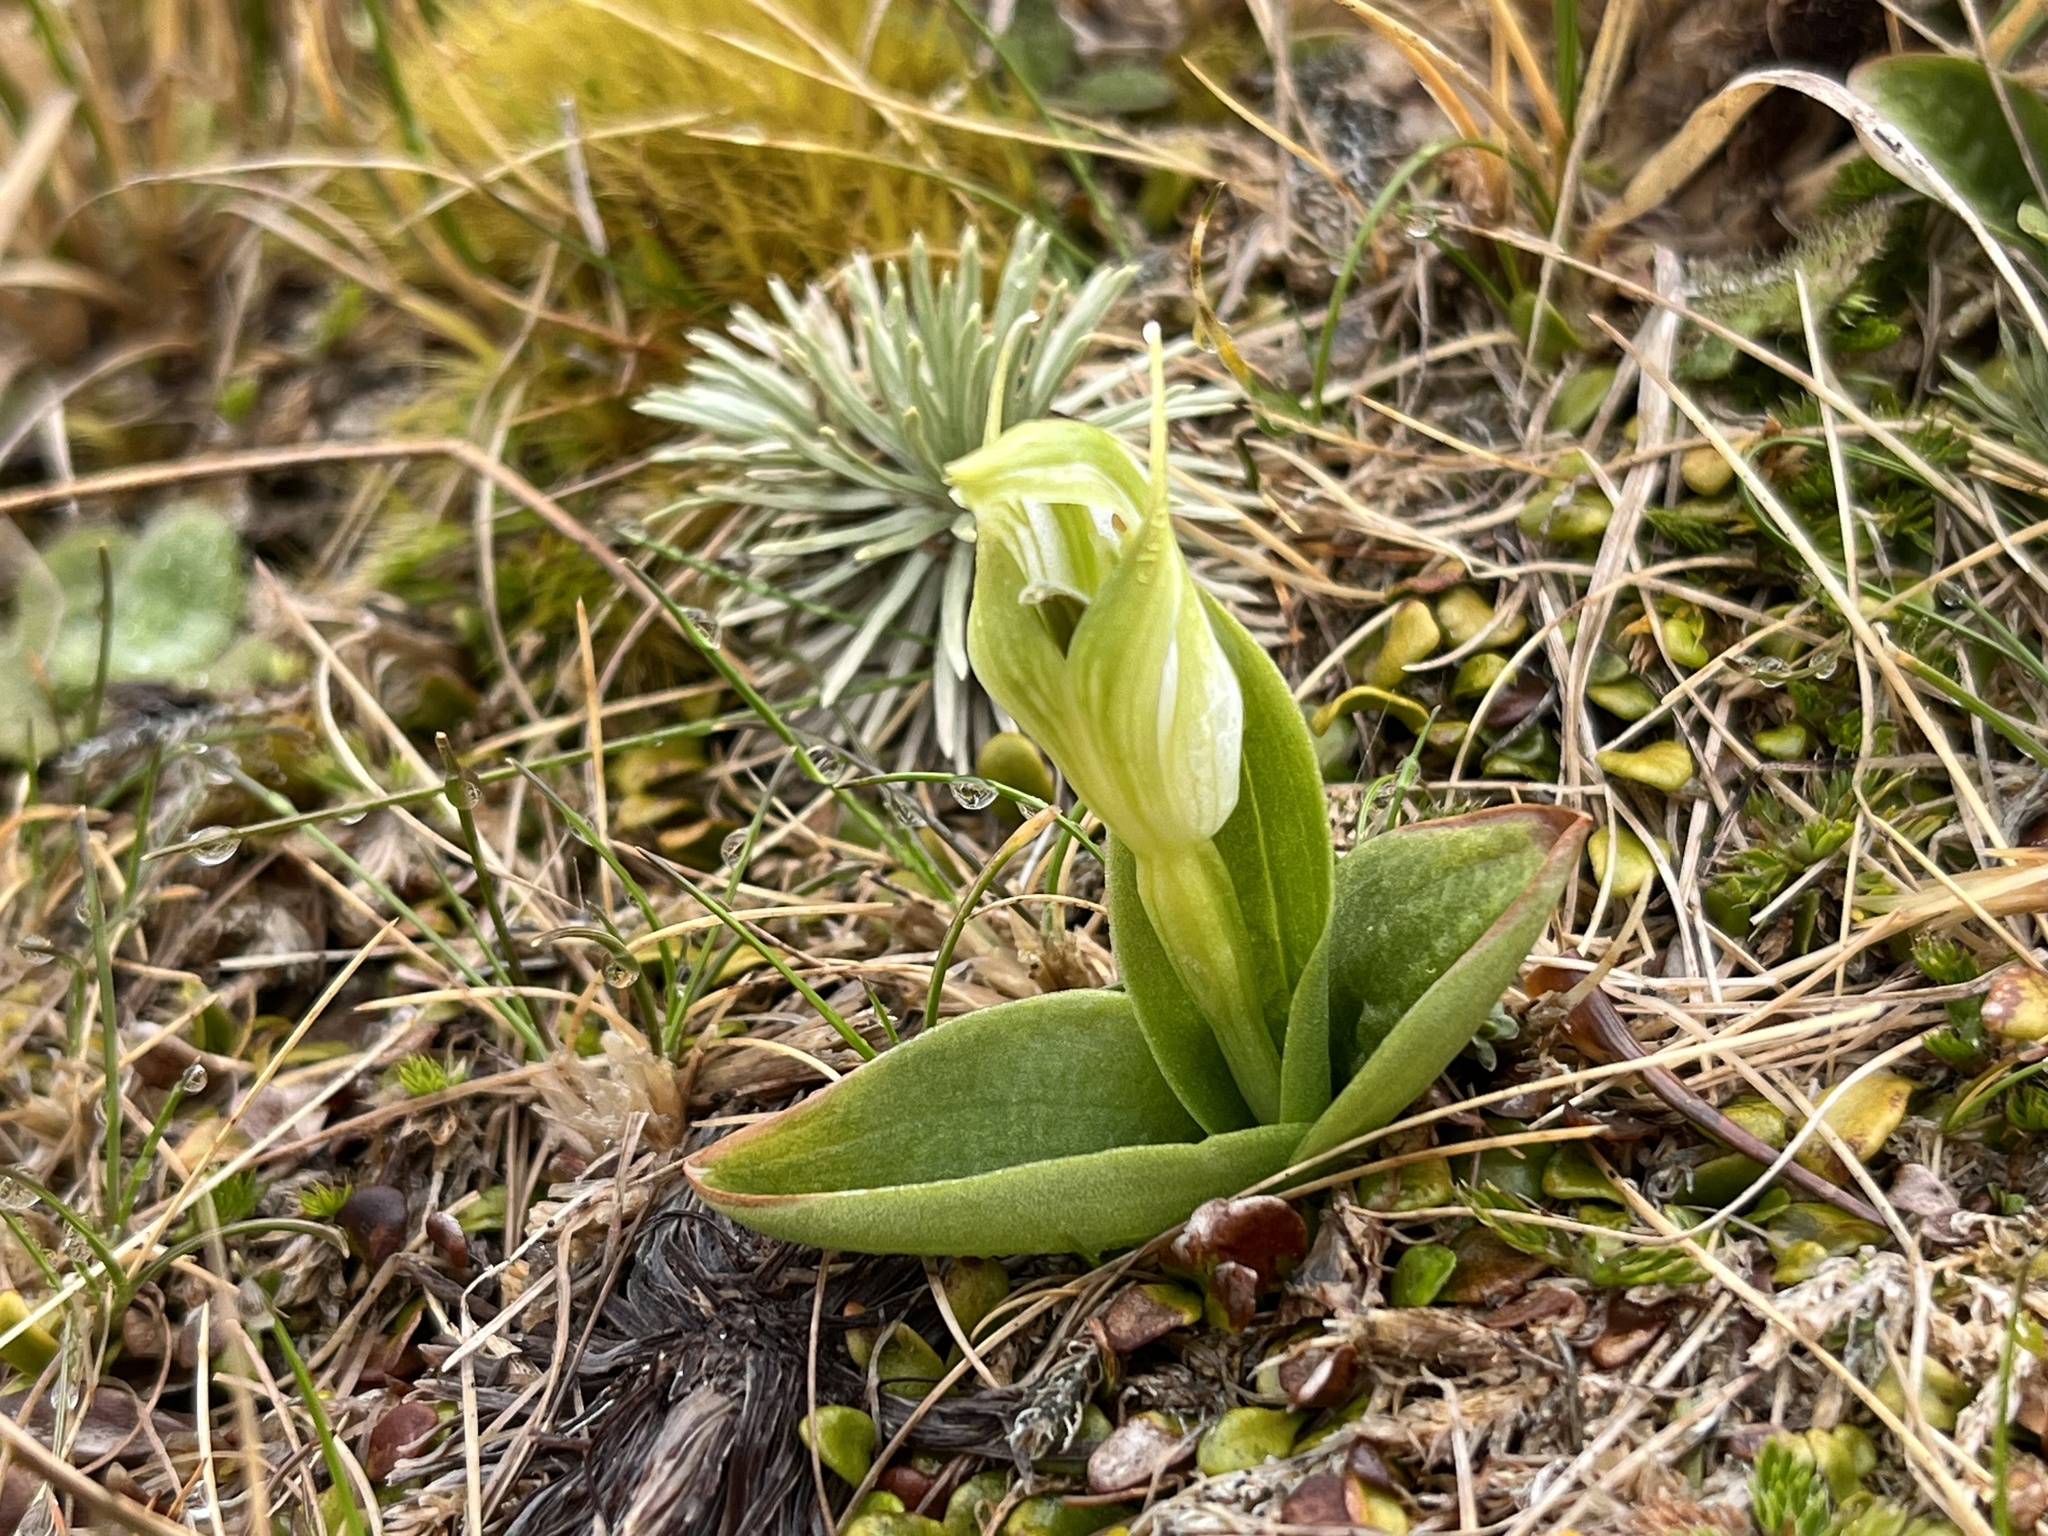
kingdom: Plantae
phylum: Tracheophyta
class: Liliopsida
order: Asparagales
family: Orchidaceae
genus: Pterostylis
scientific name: Pterostylis venosa
